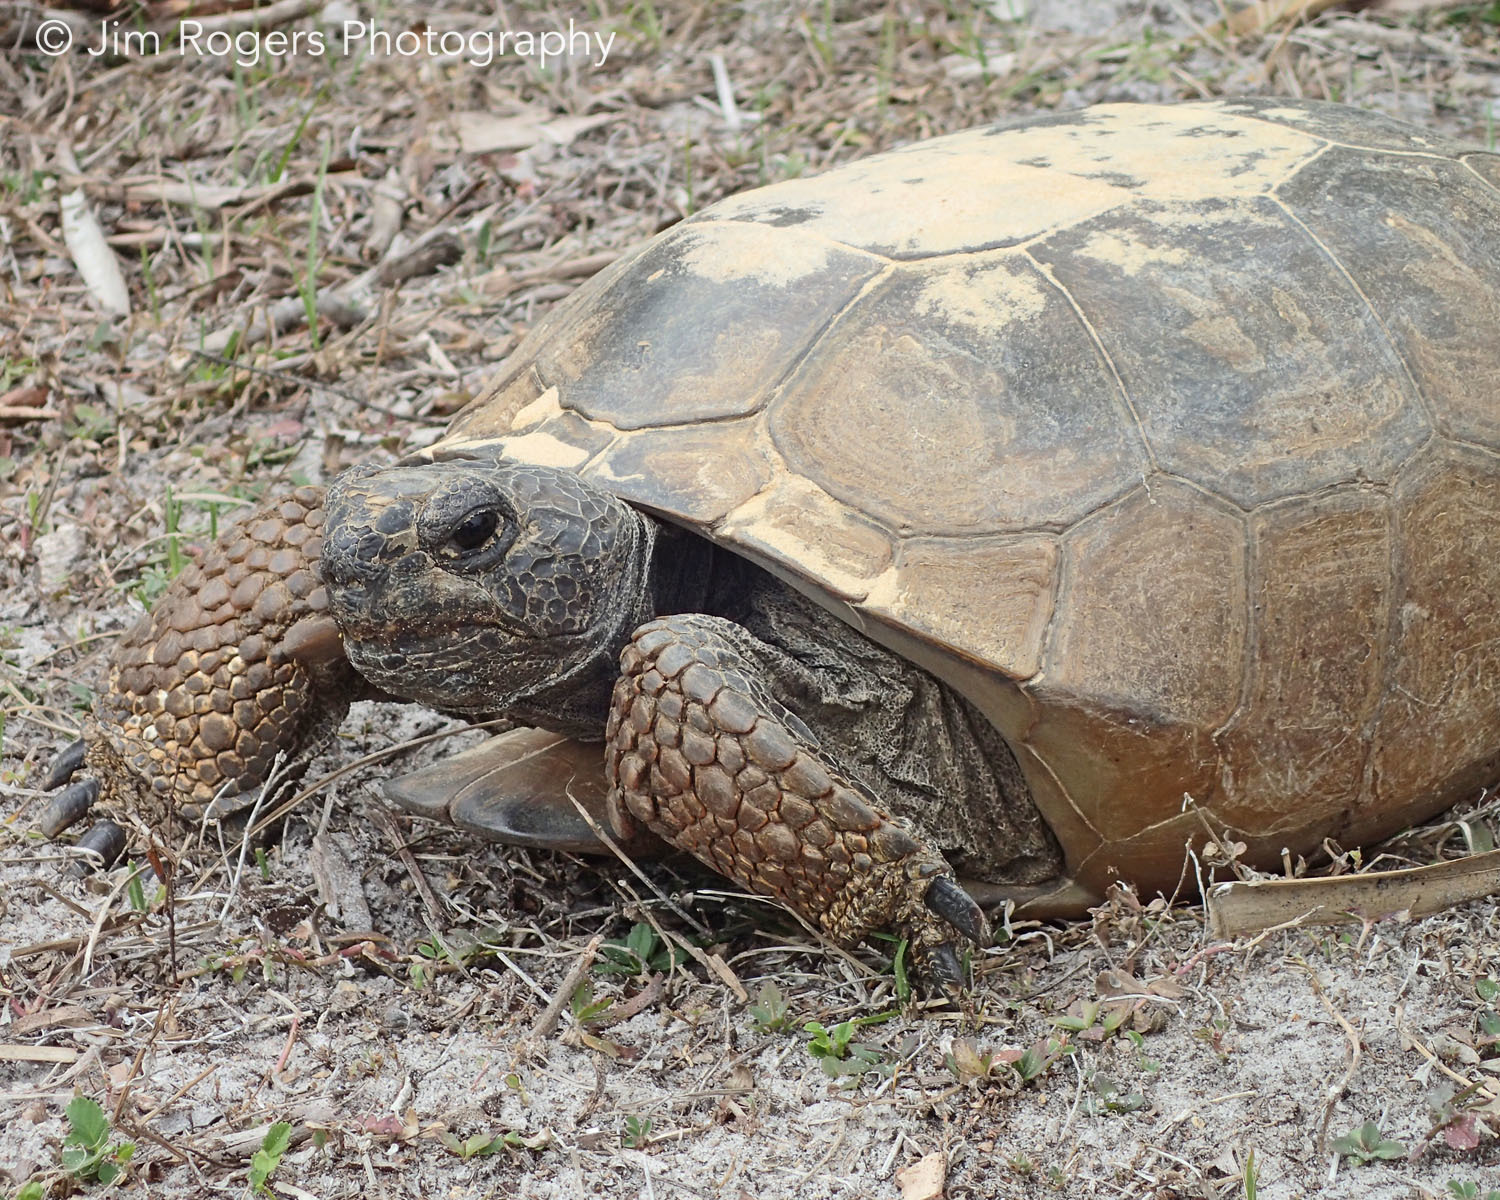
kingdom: Animalia
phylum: Chordata
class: Testudines
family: Testudinidae
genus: Gopherus
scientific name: Gopherus polyphemus
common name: Florida gopher tortoise
